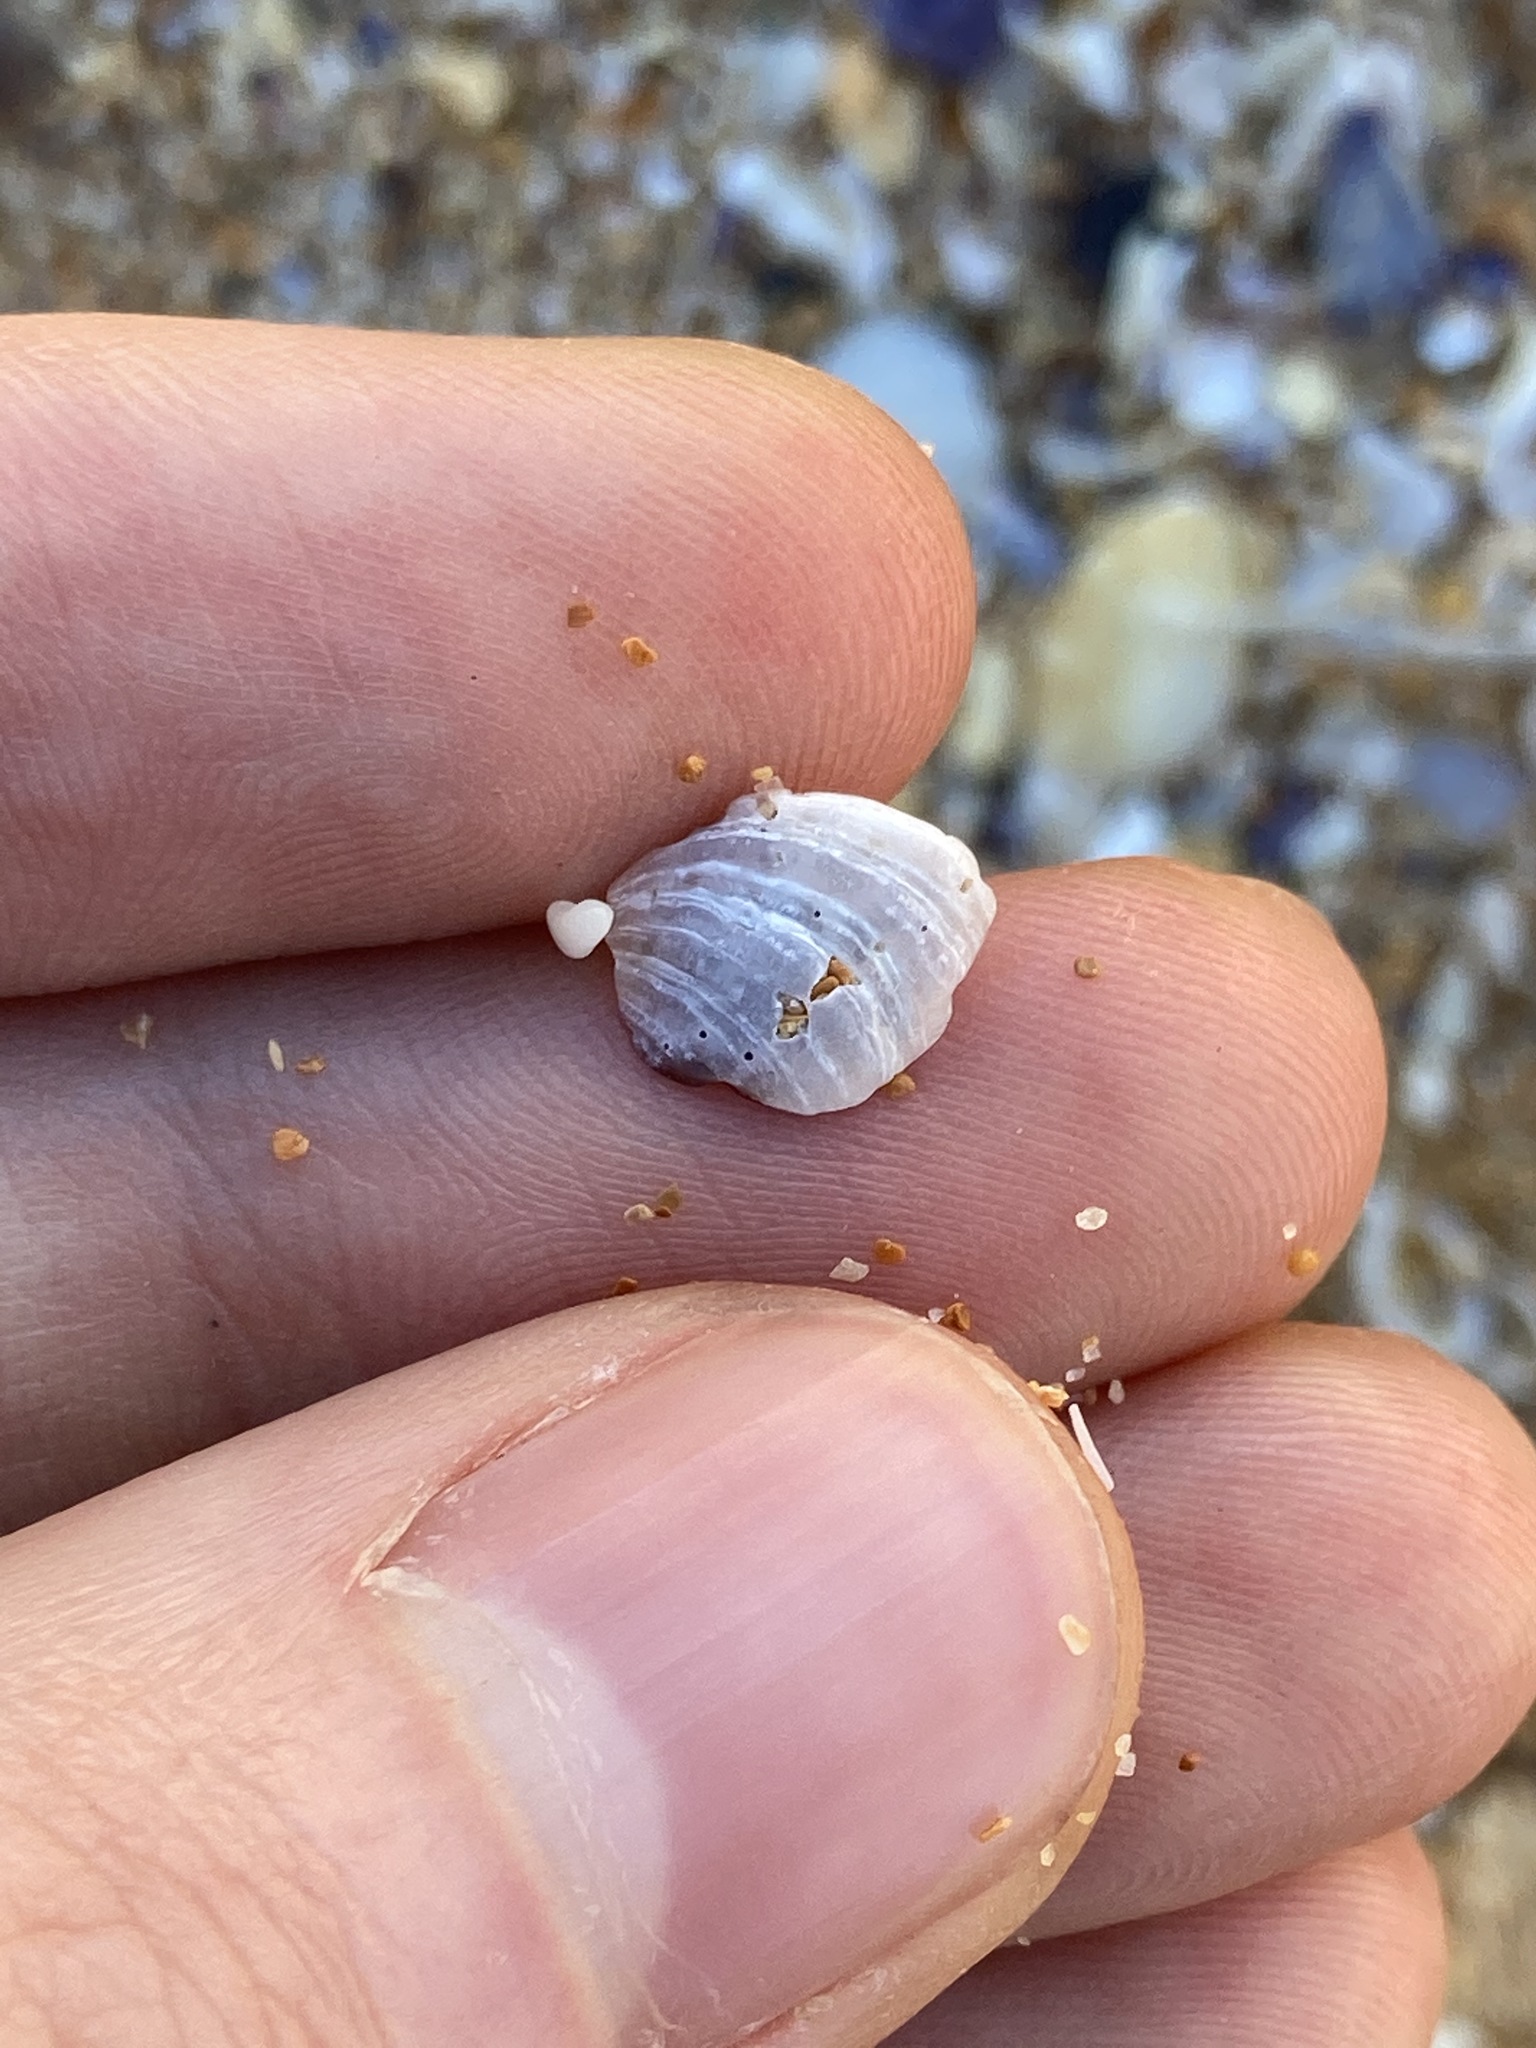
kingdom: Animalia
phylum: Mollusca
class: Bivalvia
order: Venerida
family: Veneridae
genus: Irus
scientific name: Irus cumingii
